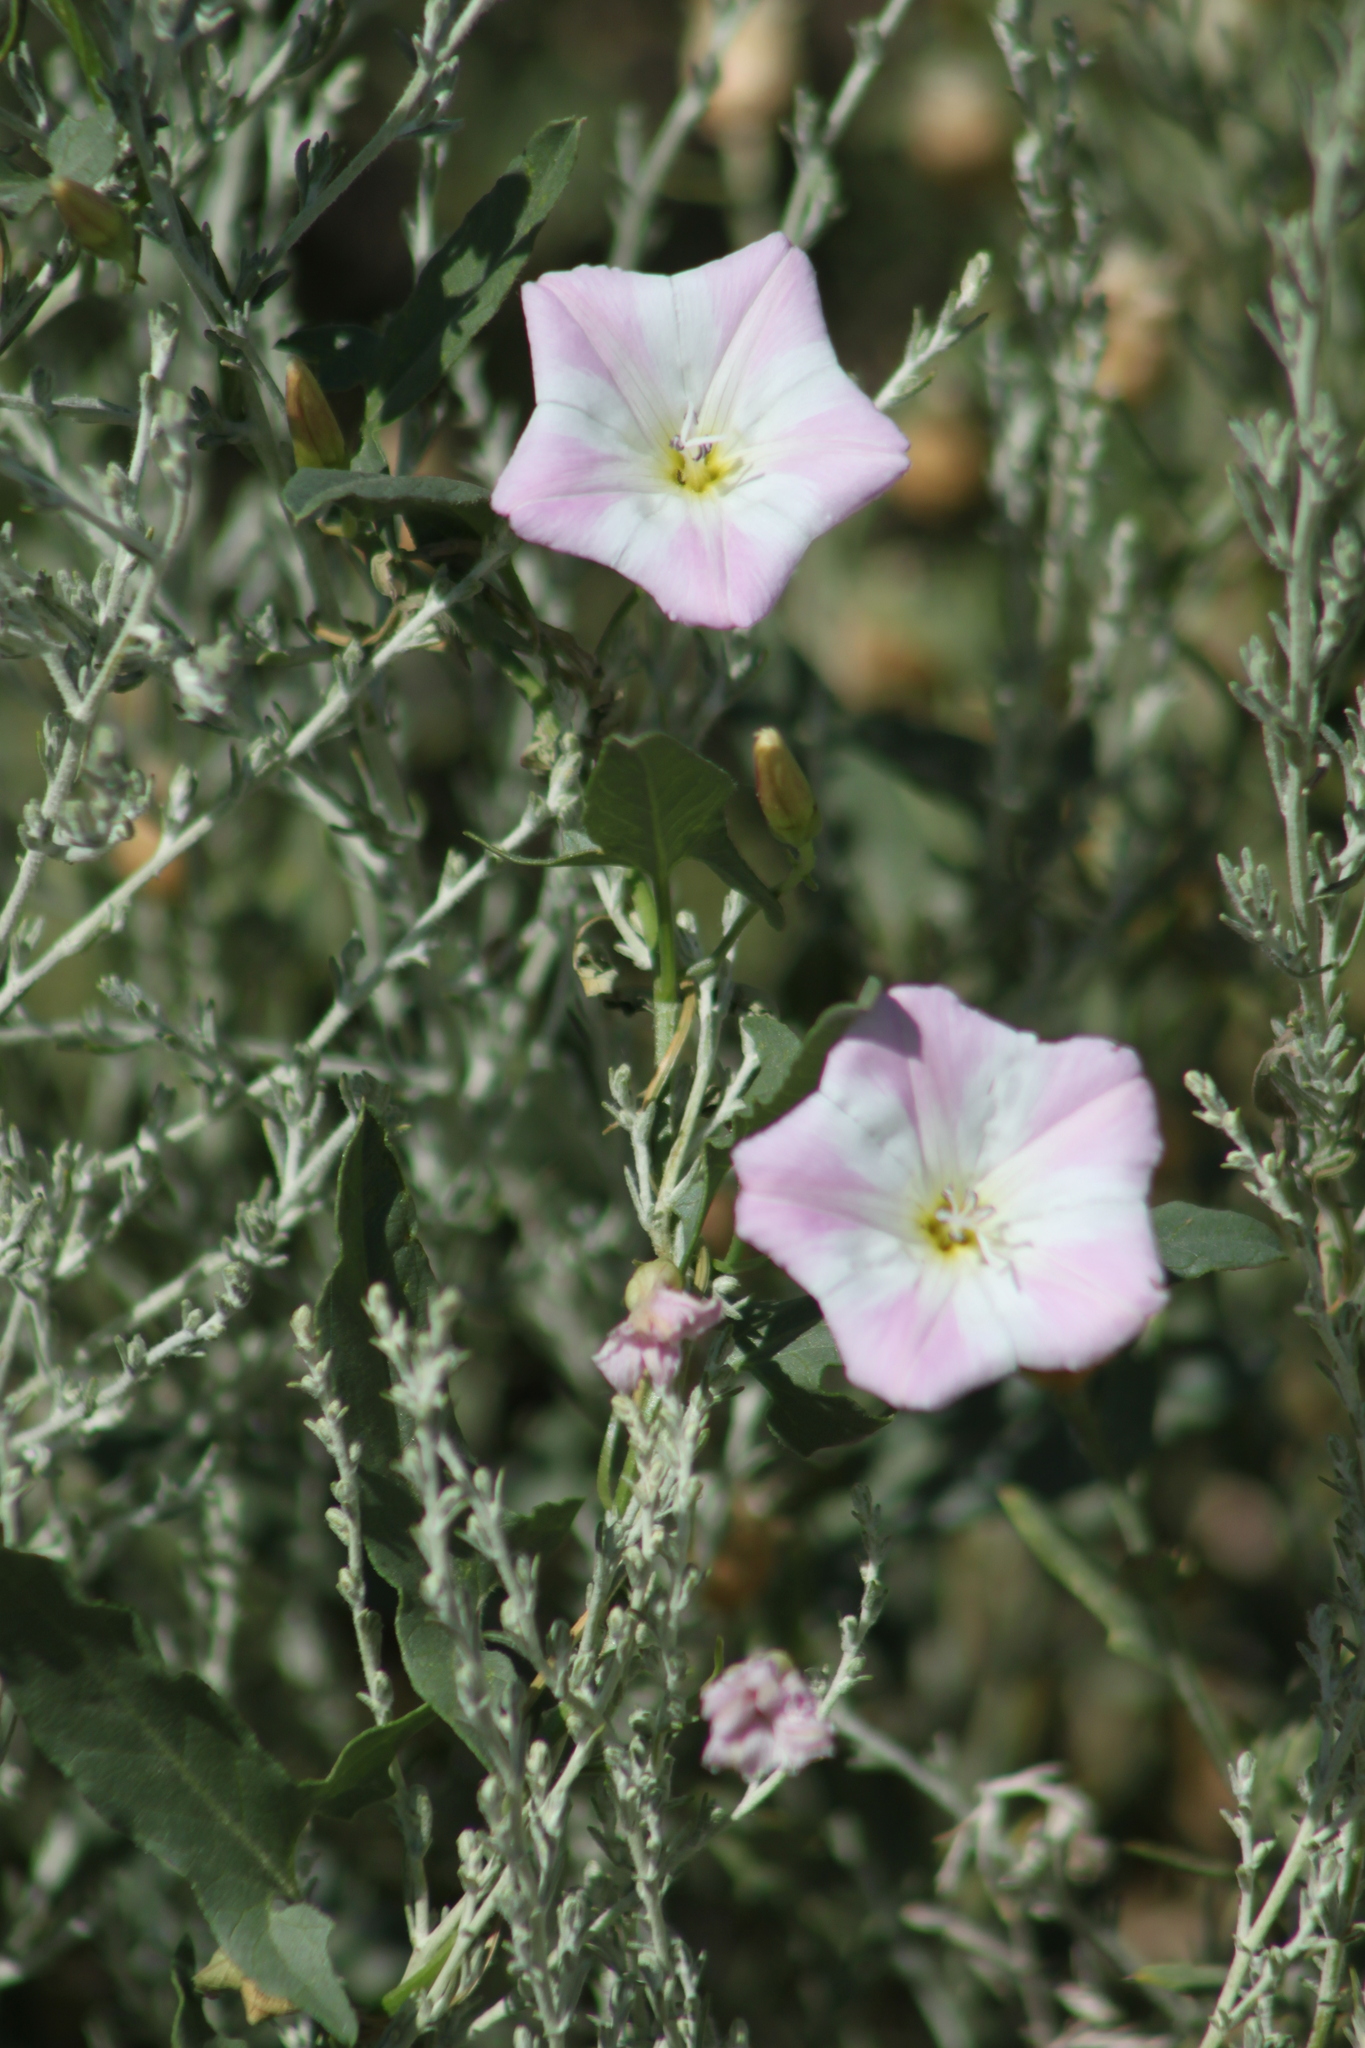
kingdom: Plantae
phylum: Tracheophyta
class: Magnoliopsida
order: Solanales
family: Convolvulaceae
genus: Convolvulus
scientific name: Convolvulus arvensis
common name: Field bindweed
